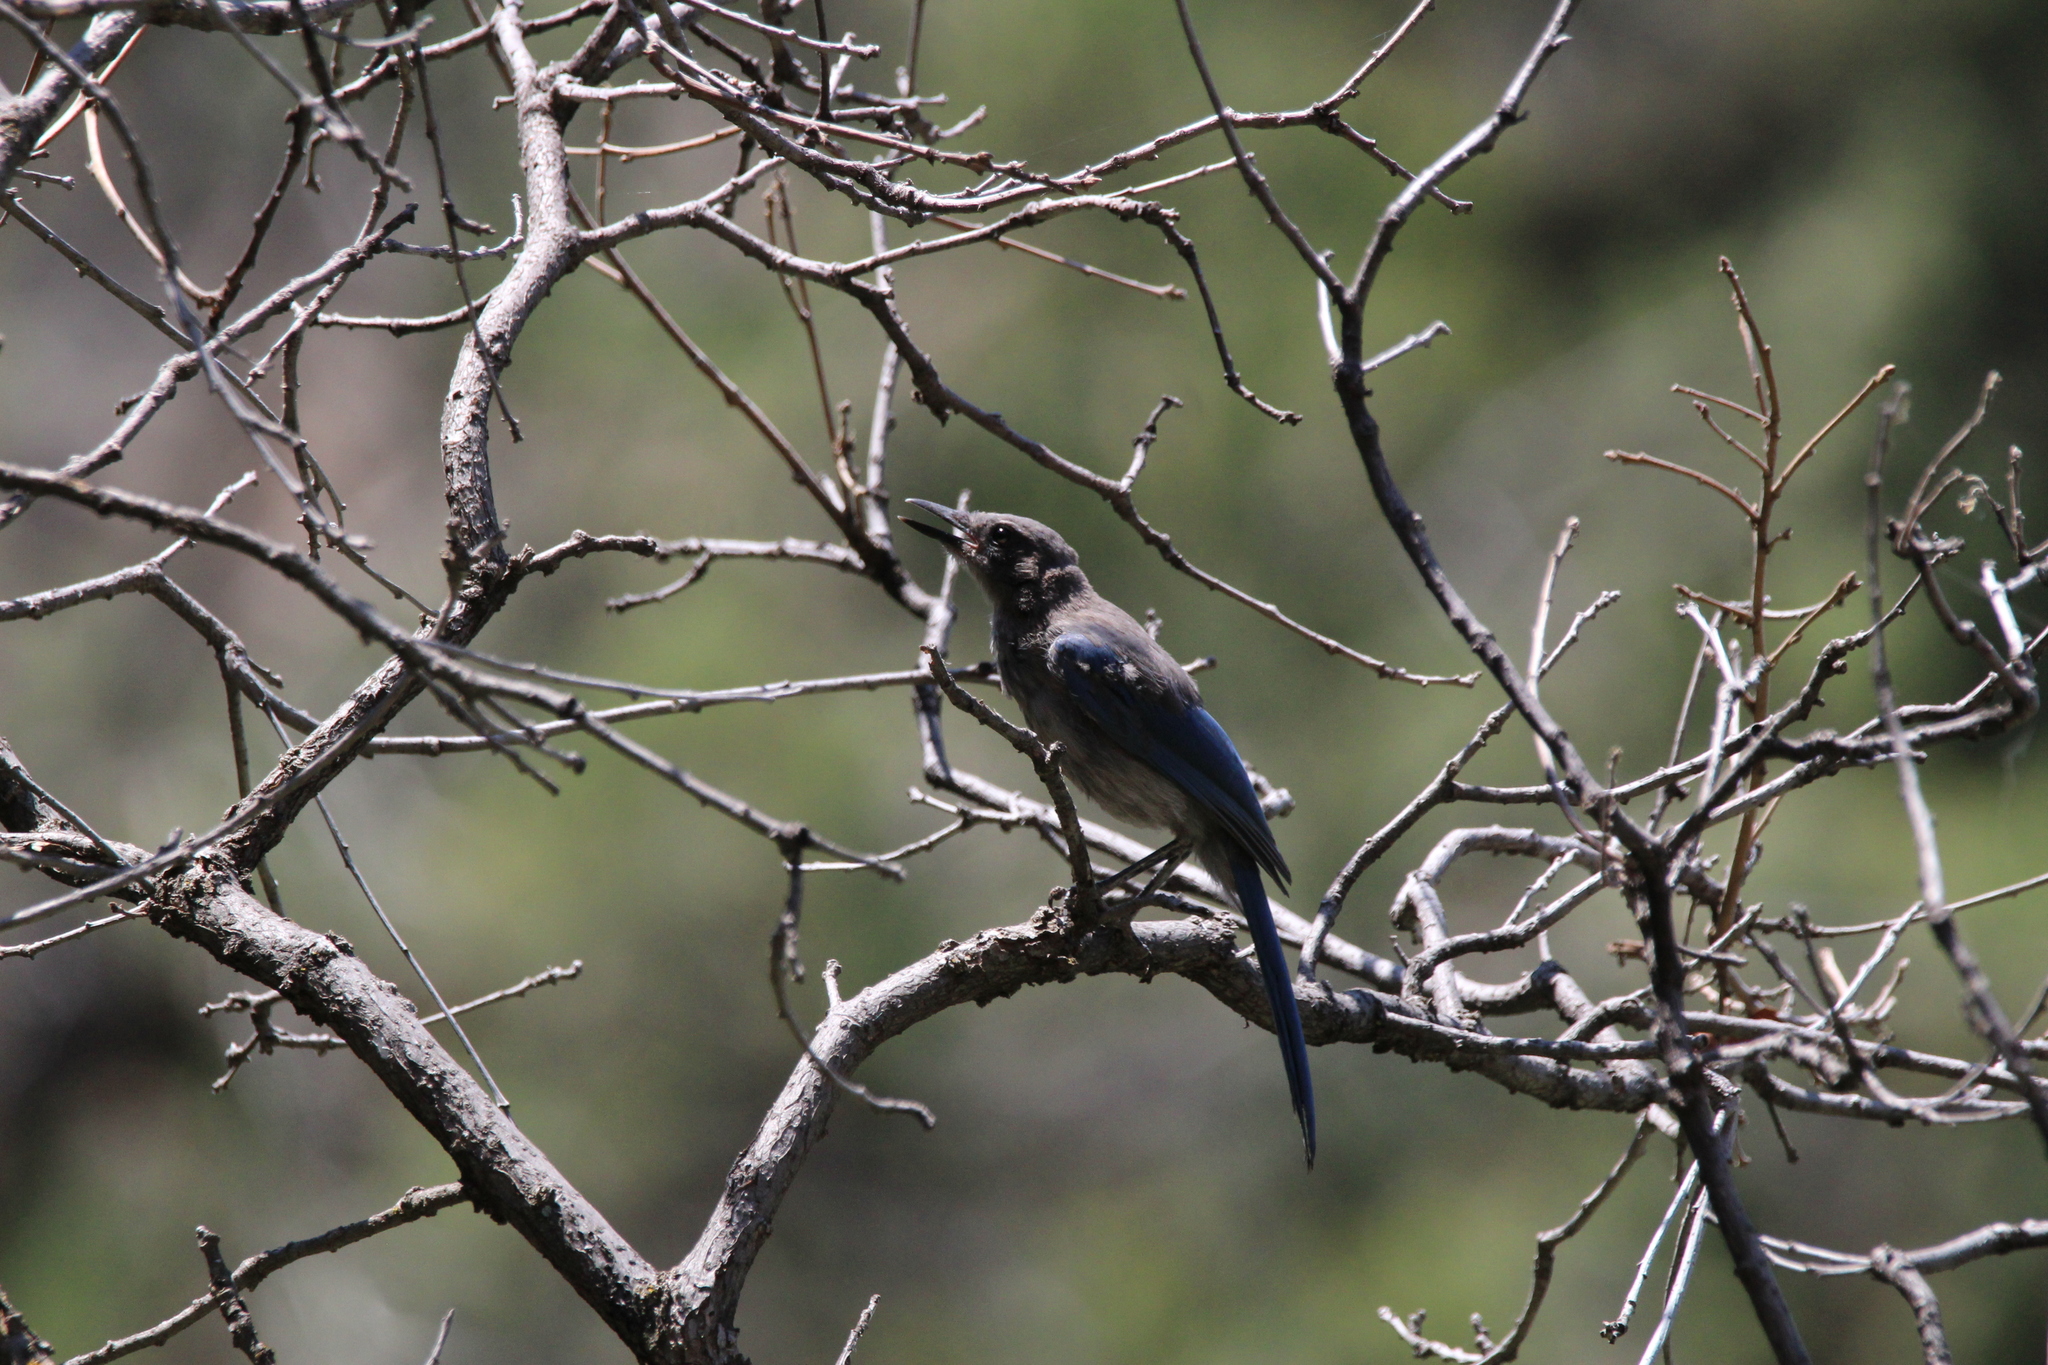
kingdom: Animalia
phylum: Chordata
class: Aves
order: Passeriformes
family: Corvidae
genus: Aphelocoma
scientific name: Aphelocoma woodhouseii
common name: Woodhouse's scrub-jay
